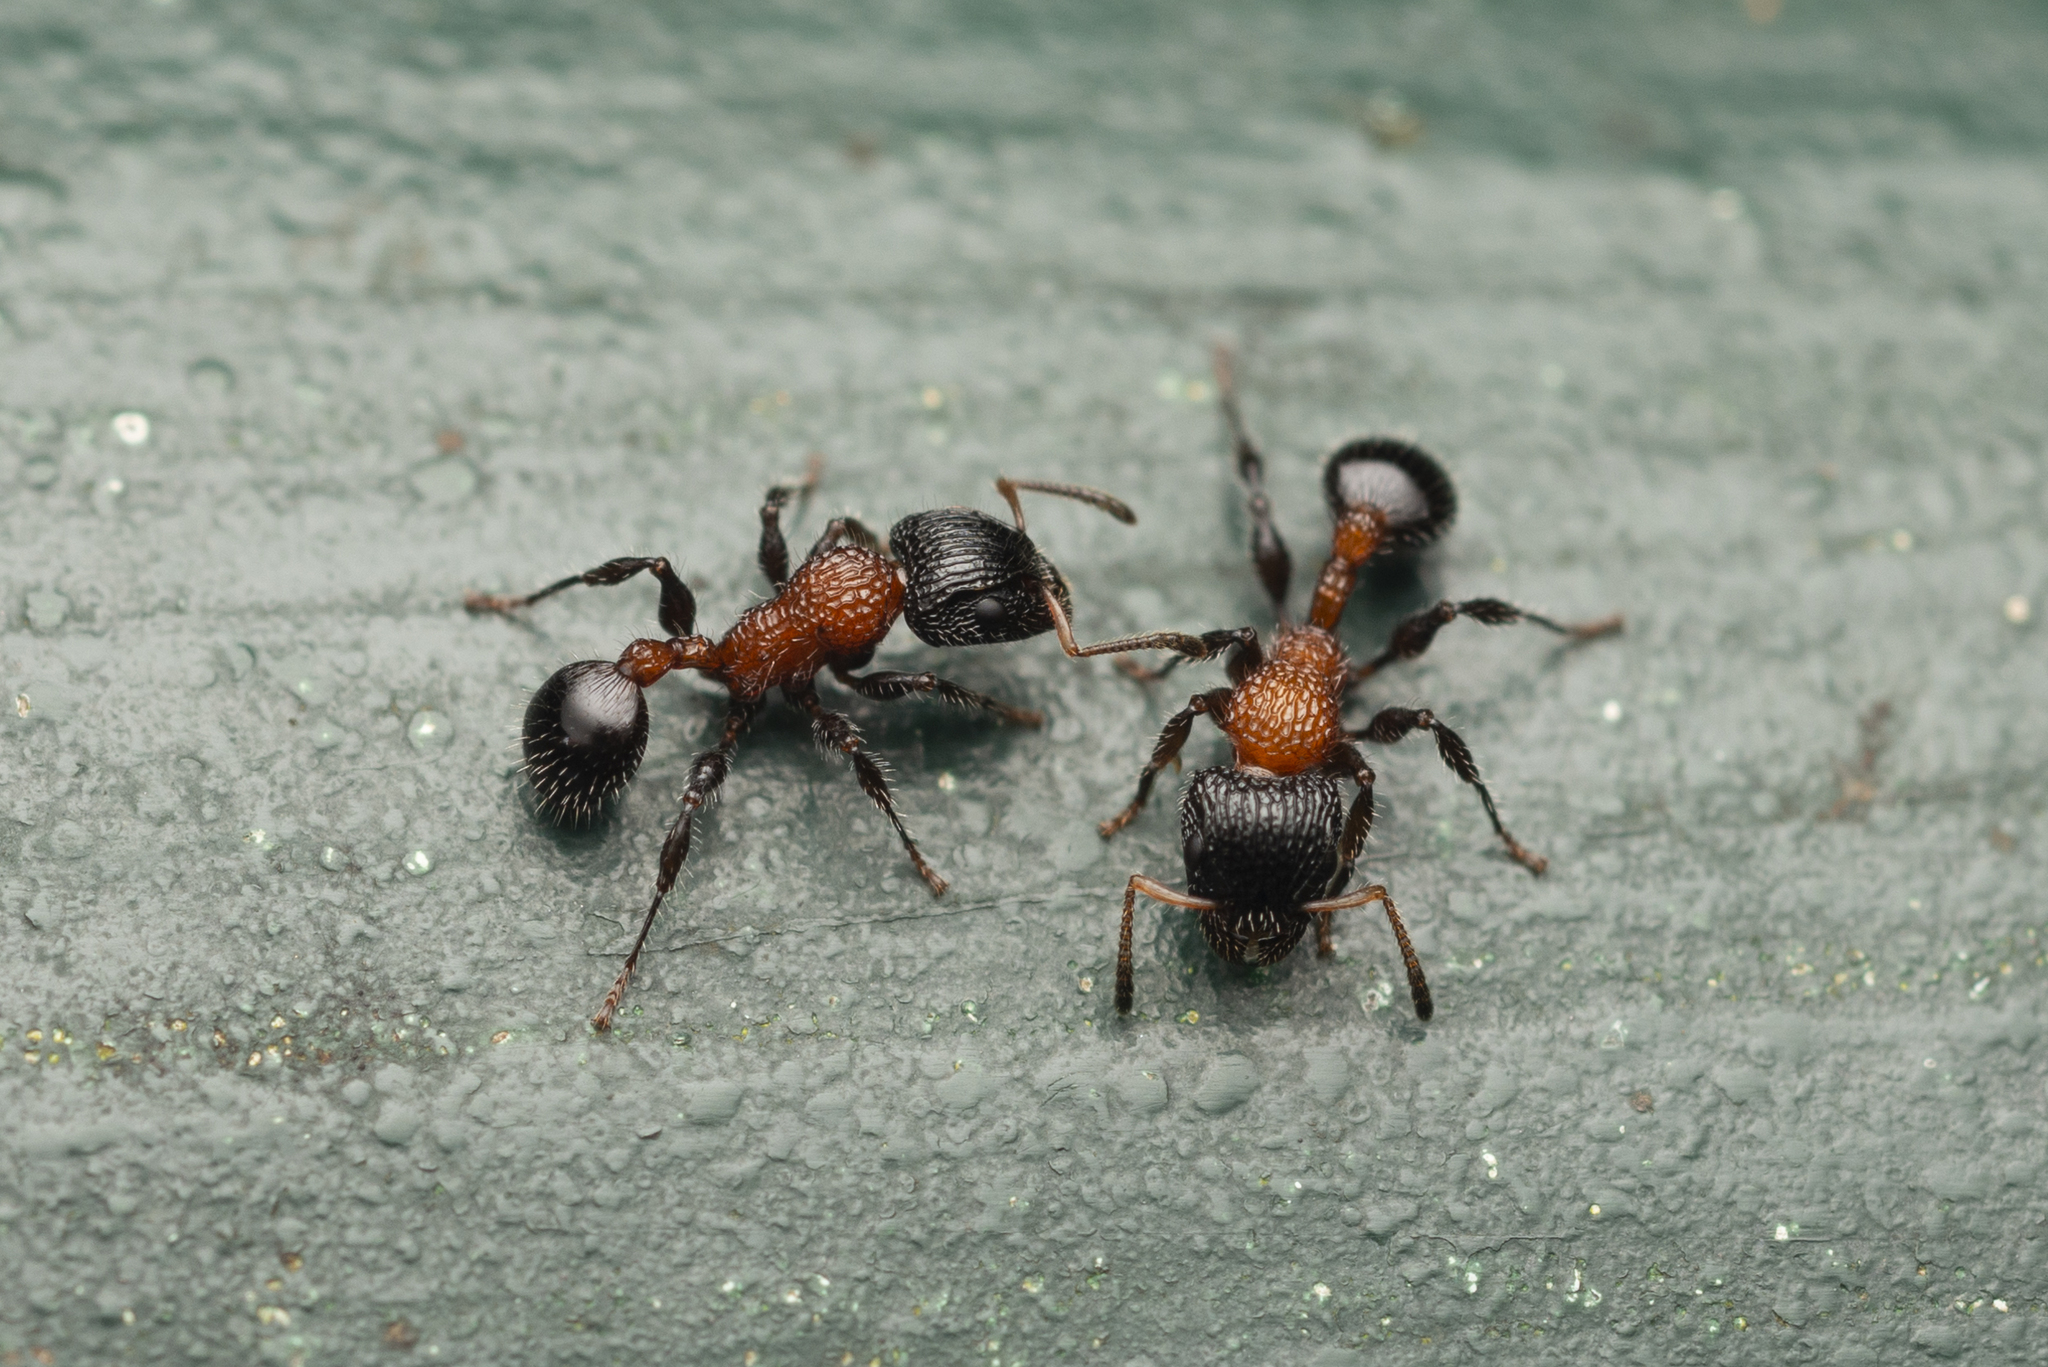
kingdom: Animalia
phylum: Arthropoda
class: Insecta
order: Hymenoptera
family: Formicidae
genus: Dilobocondyla
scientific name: Dilobocondyla fouqueti
